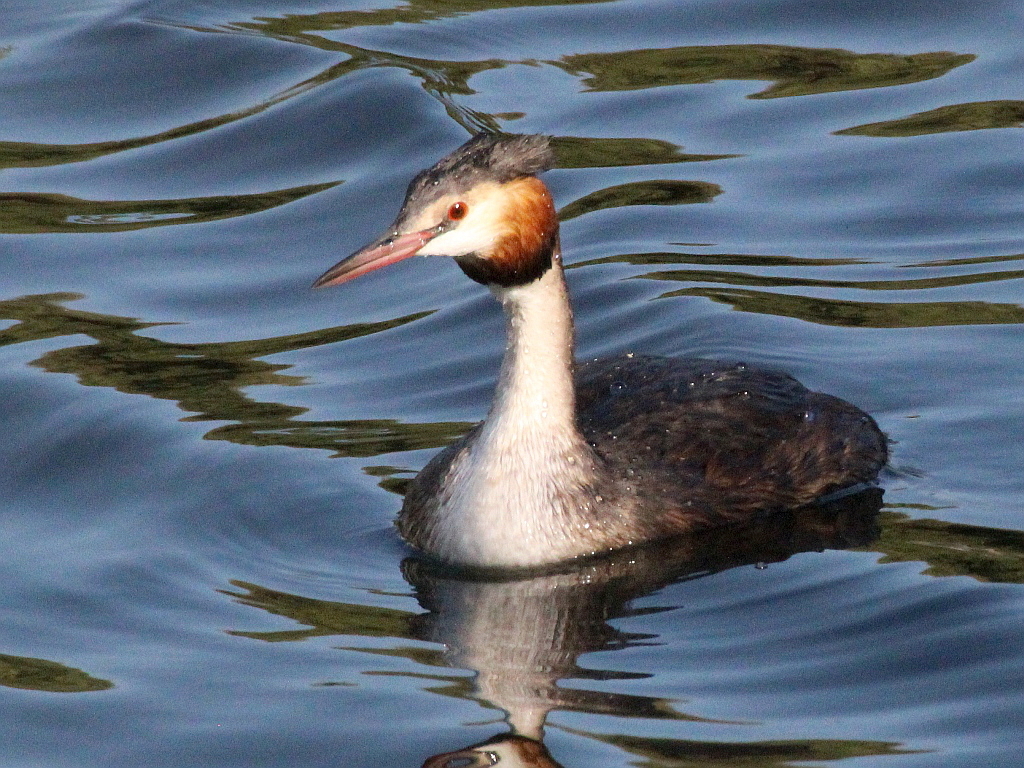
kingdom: Animalia
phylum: Chordata
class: Aves
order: Podicipediformes
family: Podicipedidae
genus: Podiceps
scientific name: Podiceps cristatus
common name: Great crested grebe
